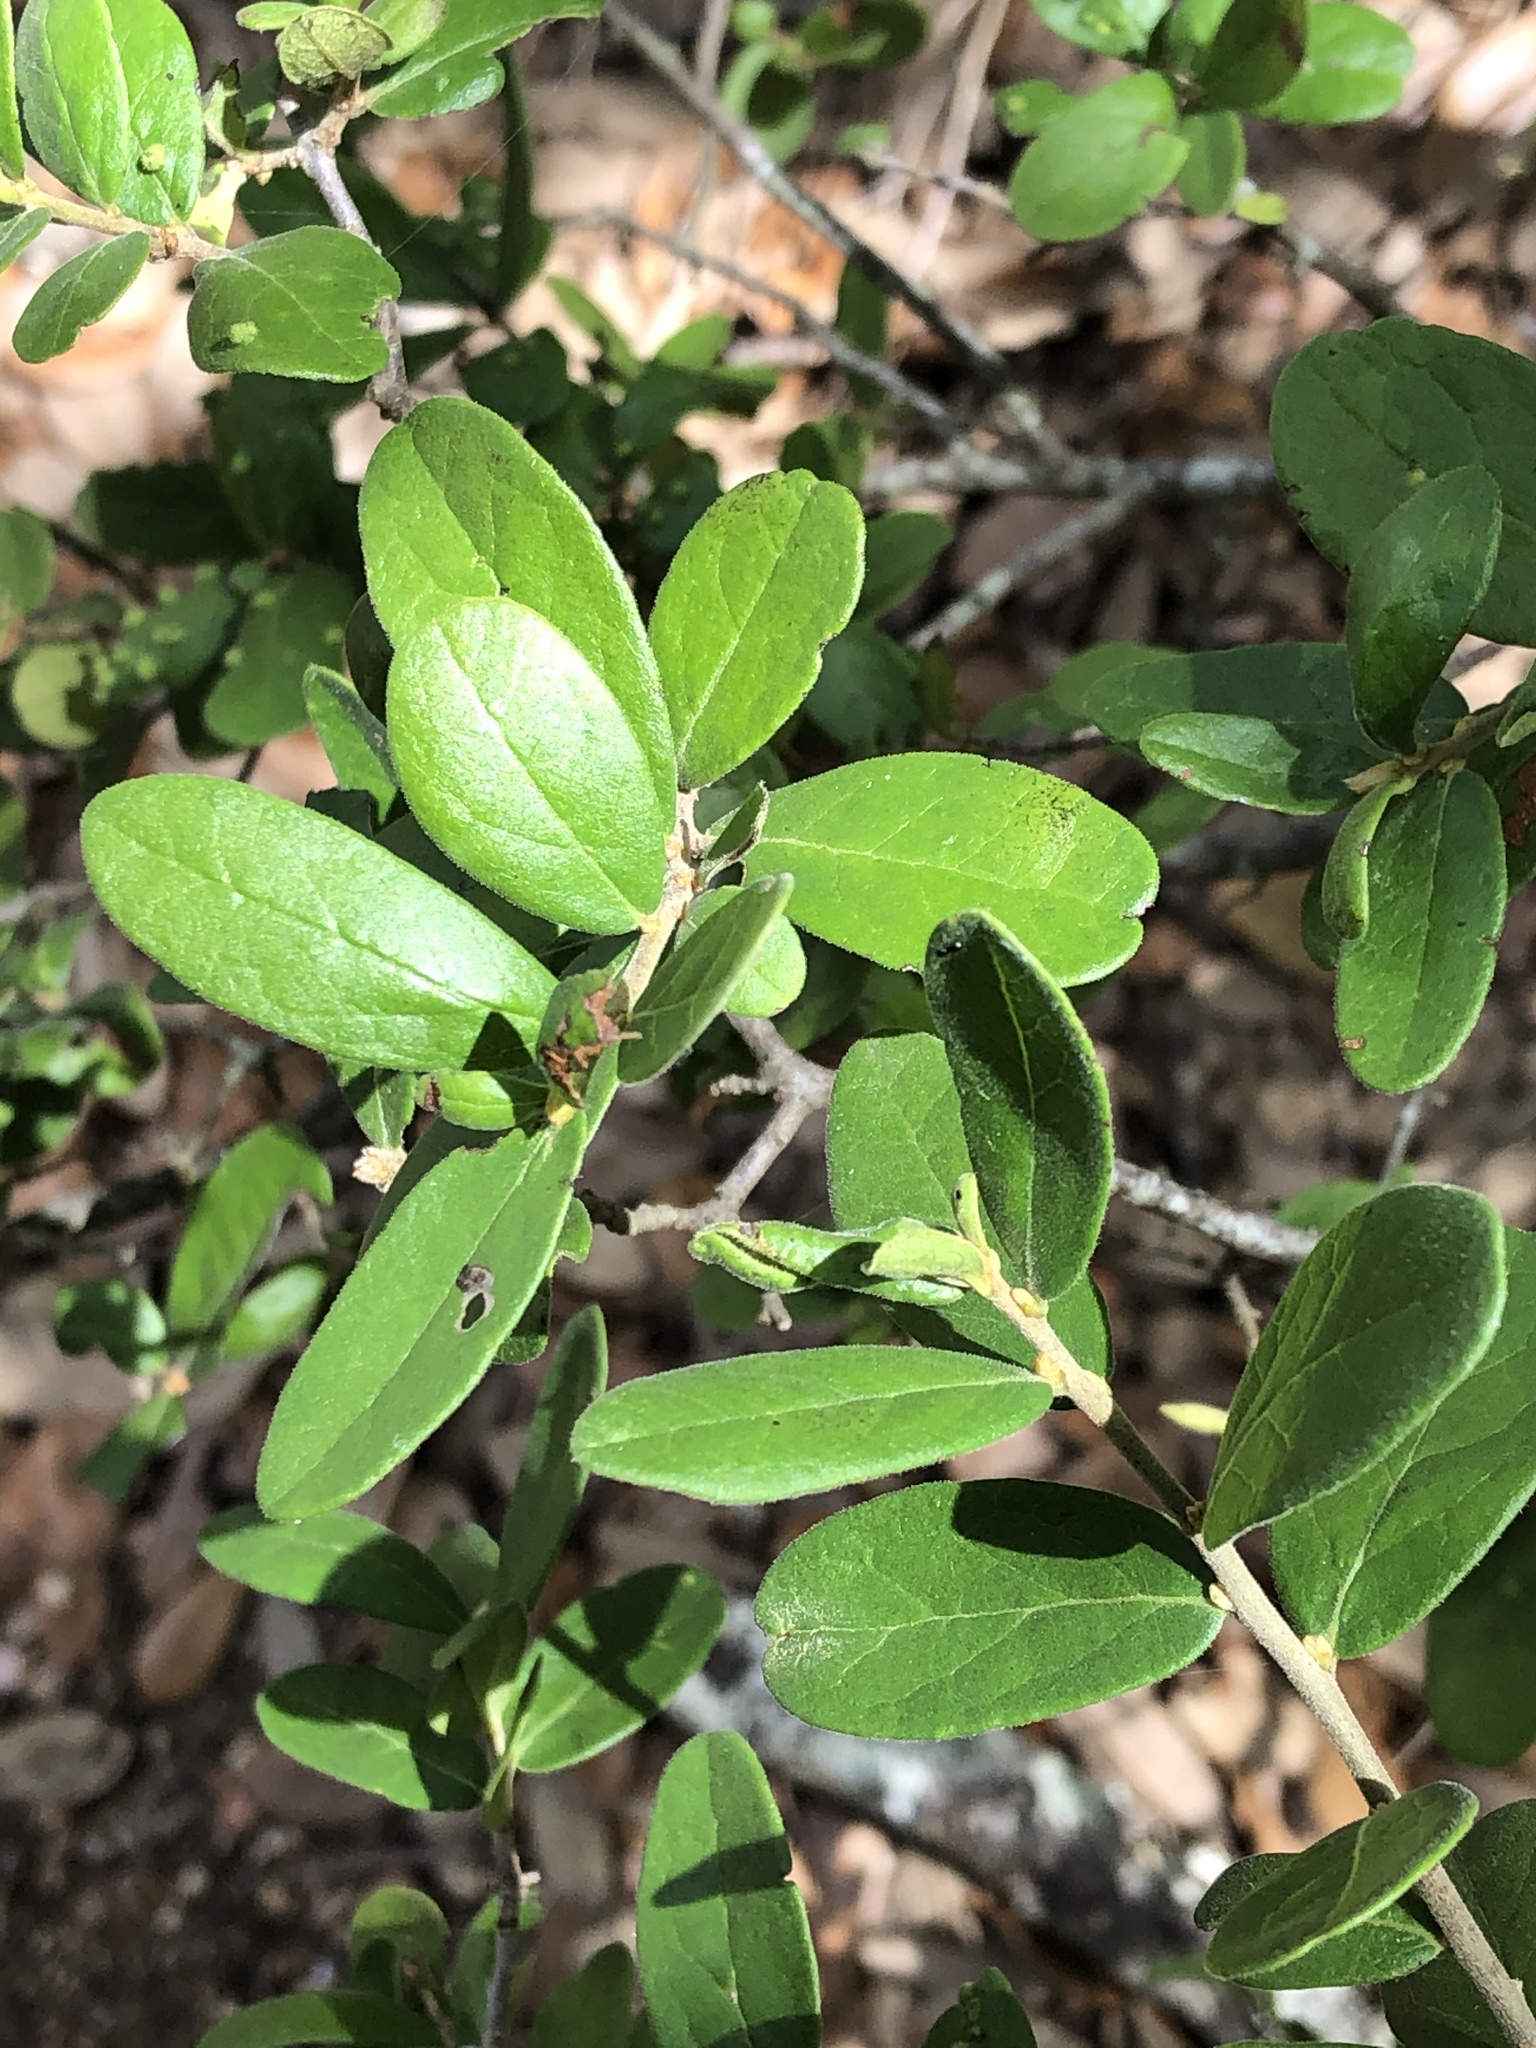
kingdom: Plantae
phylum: Tracheophyta
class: Magnoliopsida
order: Ericales
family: Ebenaceae
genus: Diospyros
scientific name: Diospyros texana
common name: Texas persimmon
